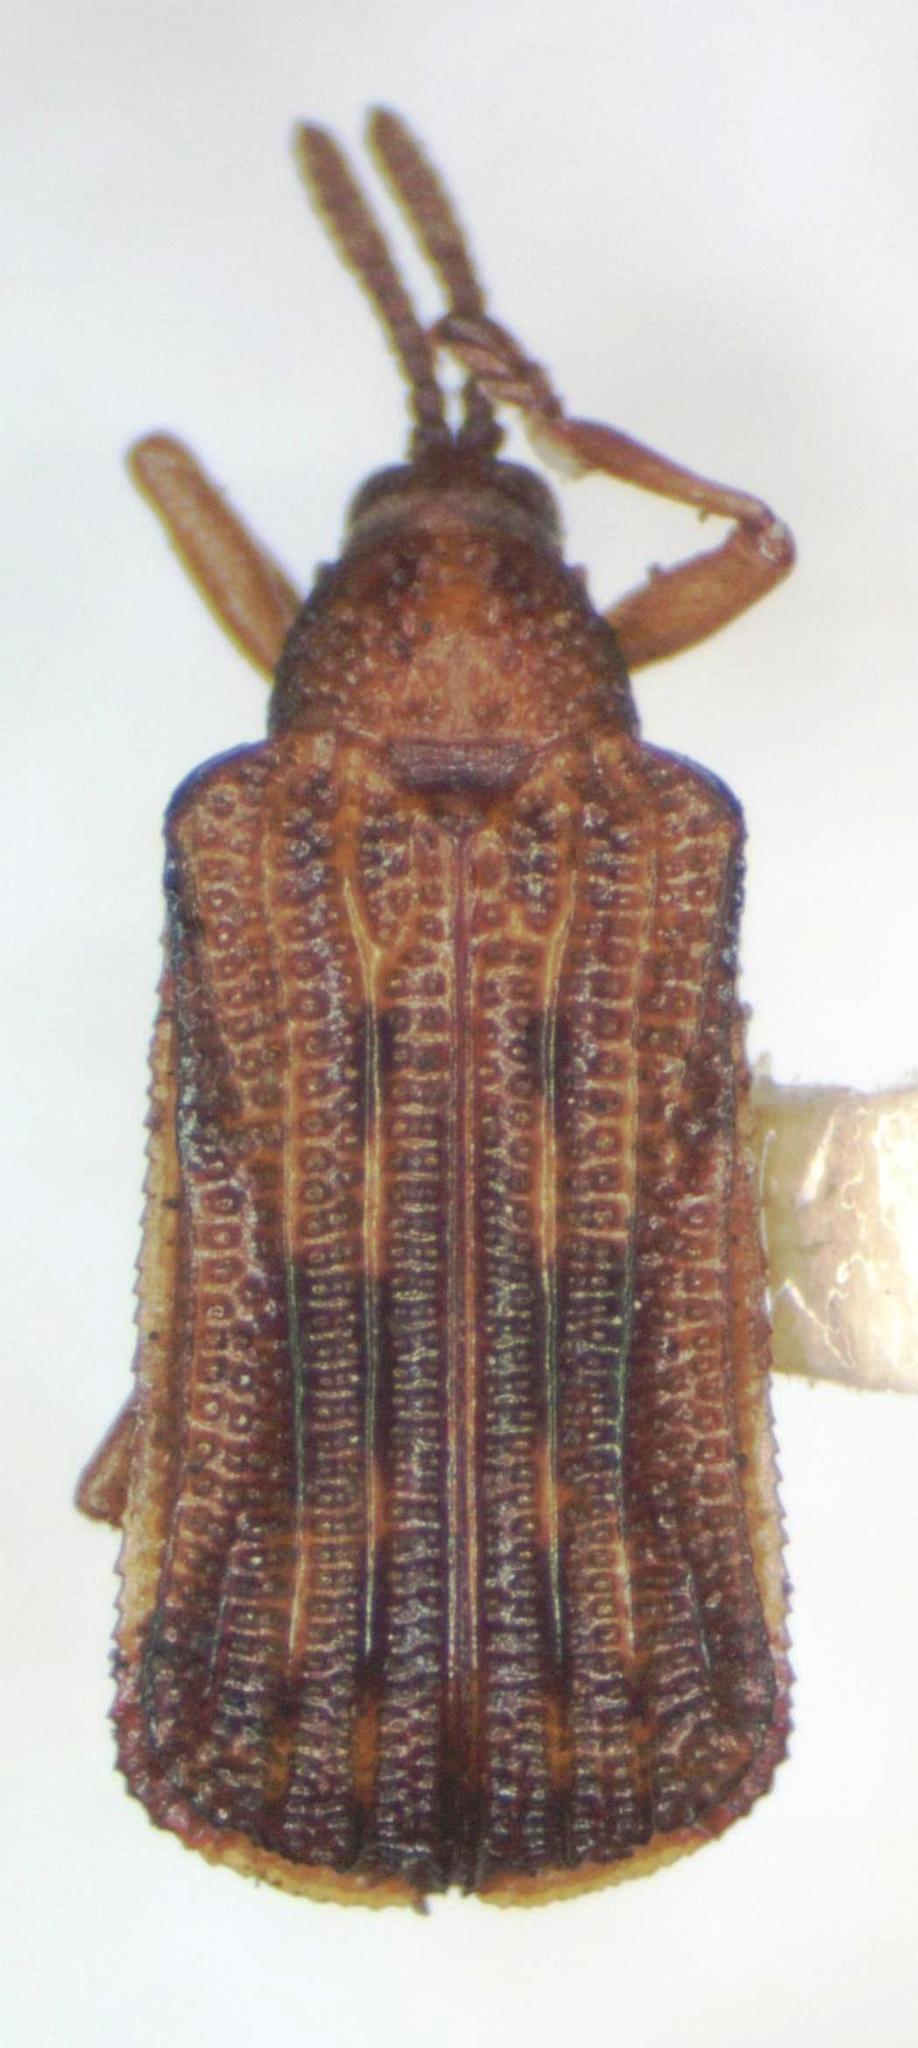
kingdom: Animalia
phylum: Arthropoda
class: Insecta
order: Coleoptera
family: Chrysomelidae
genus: Baliosus
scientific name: Baliosus nervosus
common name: Basswood leaf miner
